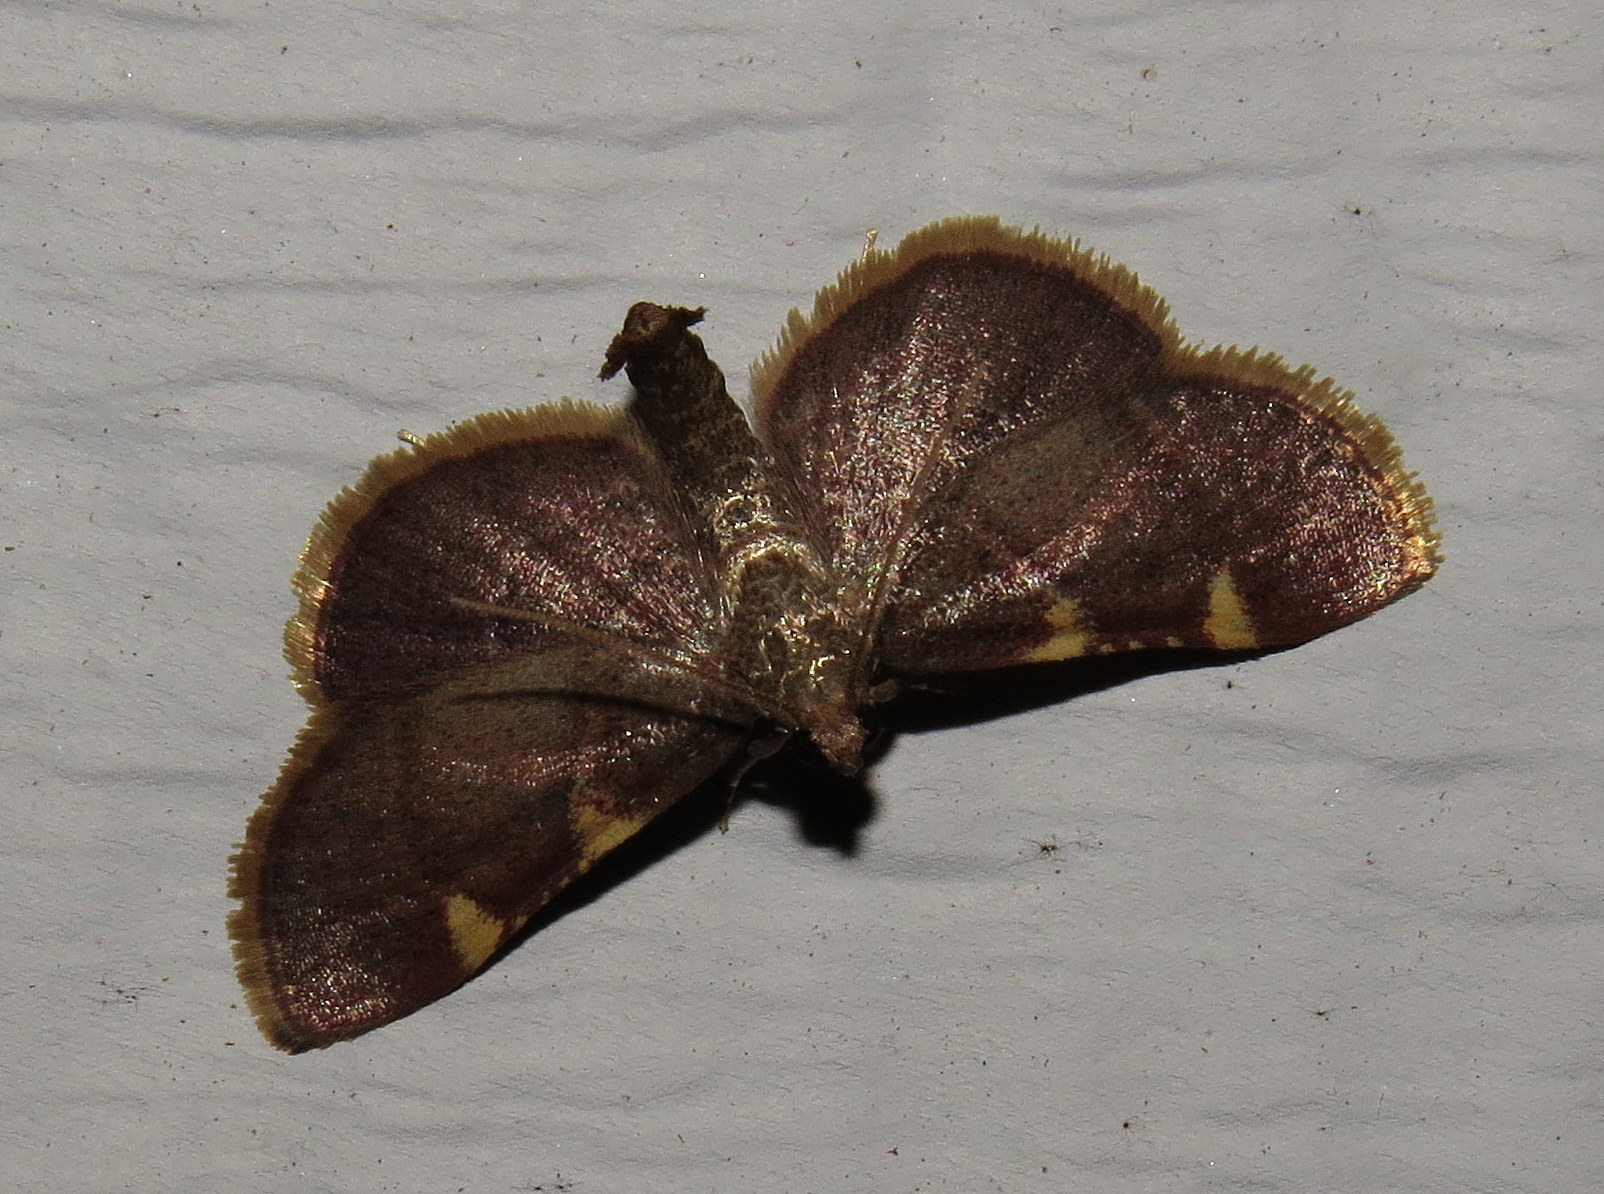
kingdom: Animalia
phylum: Arthropoda
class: Insecta
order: Lepidoptera
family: Pyralidae
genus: Hypsopygia
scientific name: Hypsopygia olinalis
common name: Yellow-fringed dolichomia moth
